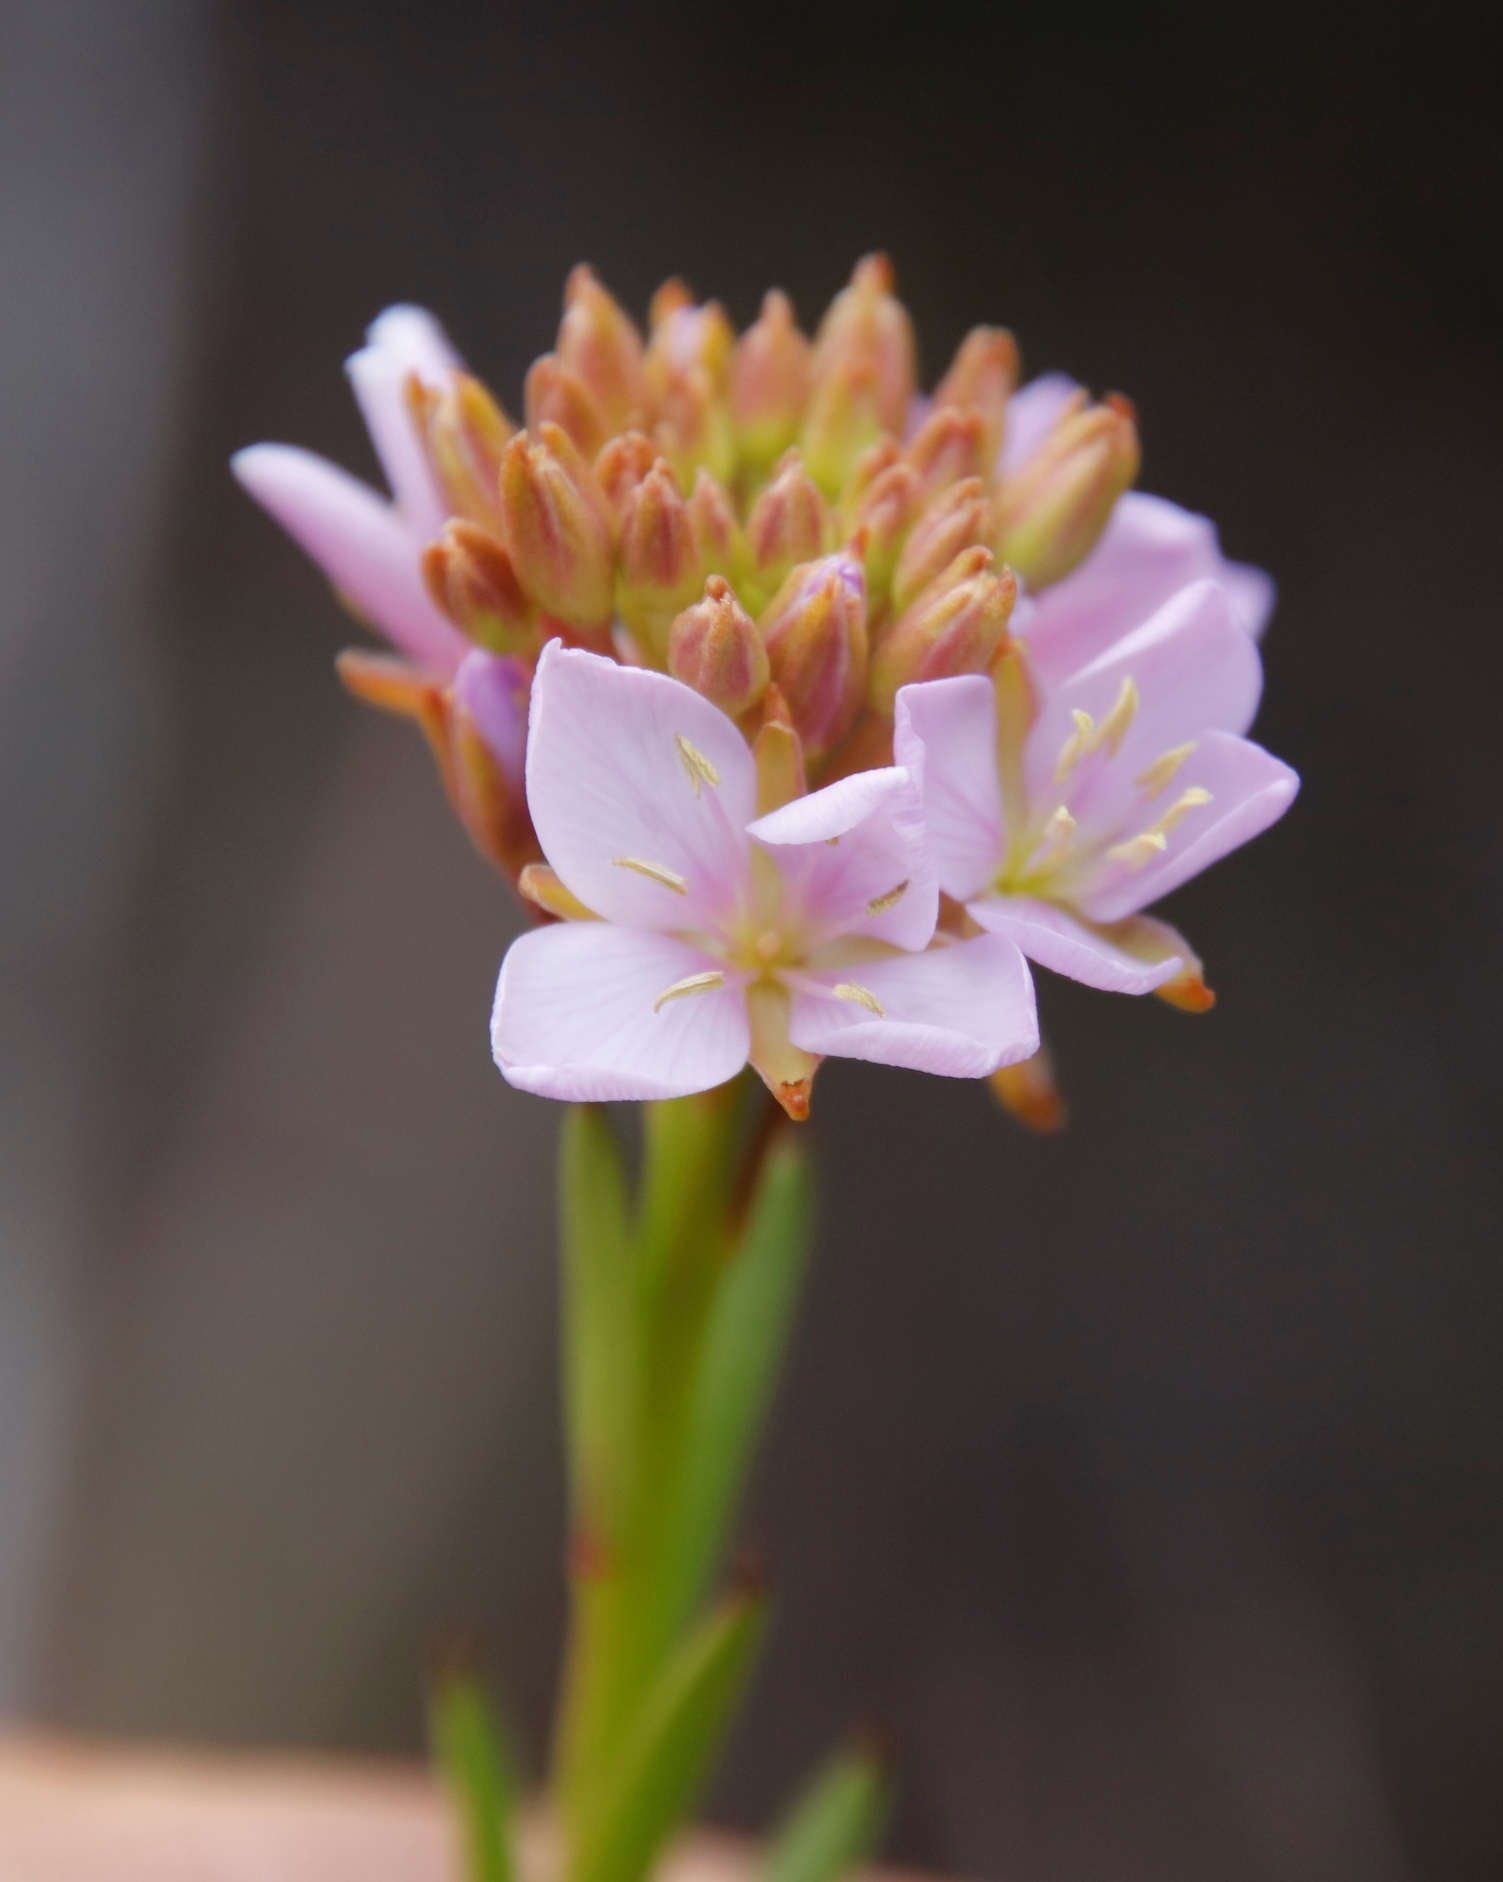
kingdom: Plantae
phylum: Tracheophyta
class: Magnoliopsida
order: Brassicales
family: Brassicaceae
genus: Heliophila
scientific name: Heliophila callosa
